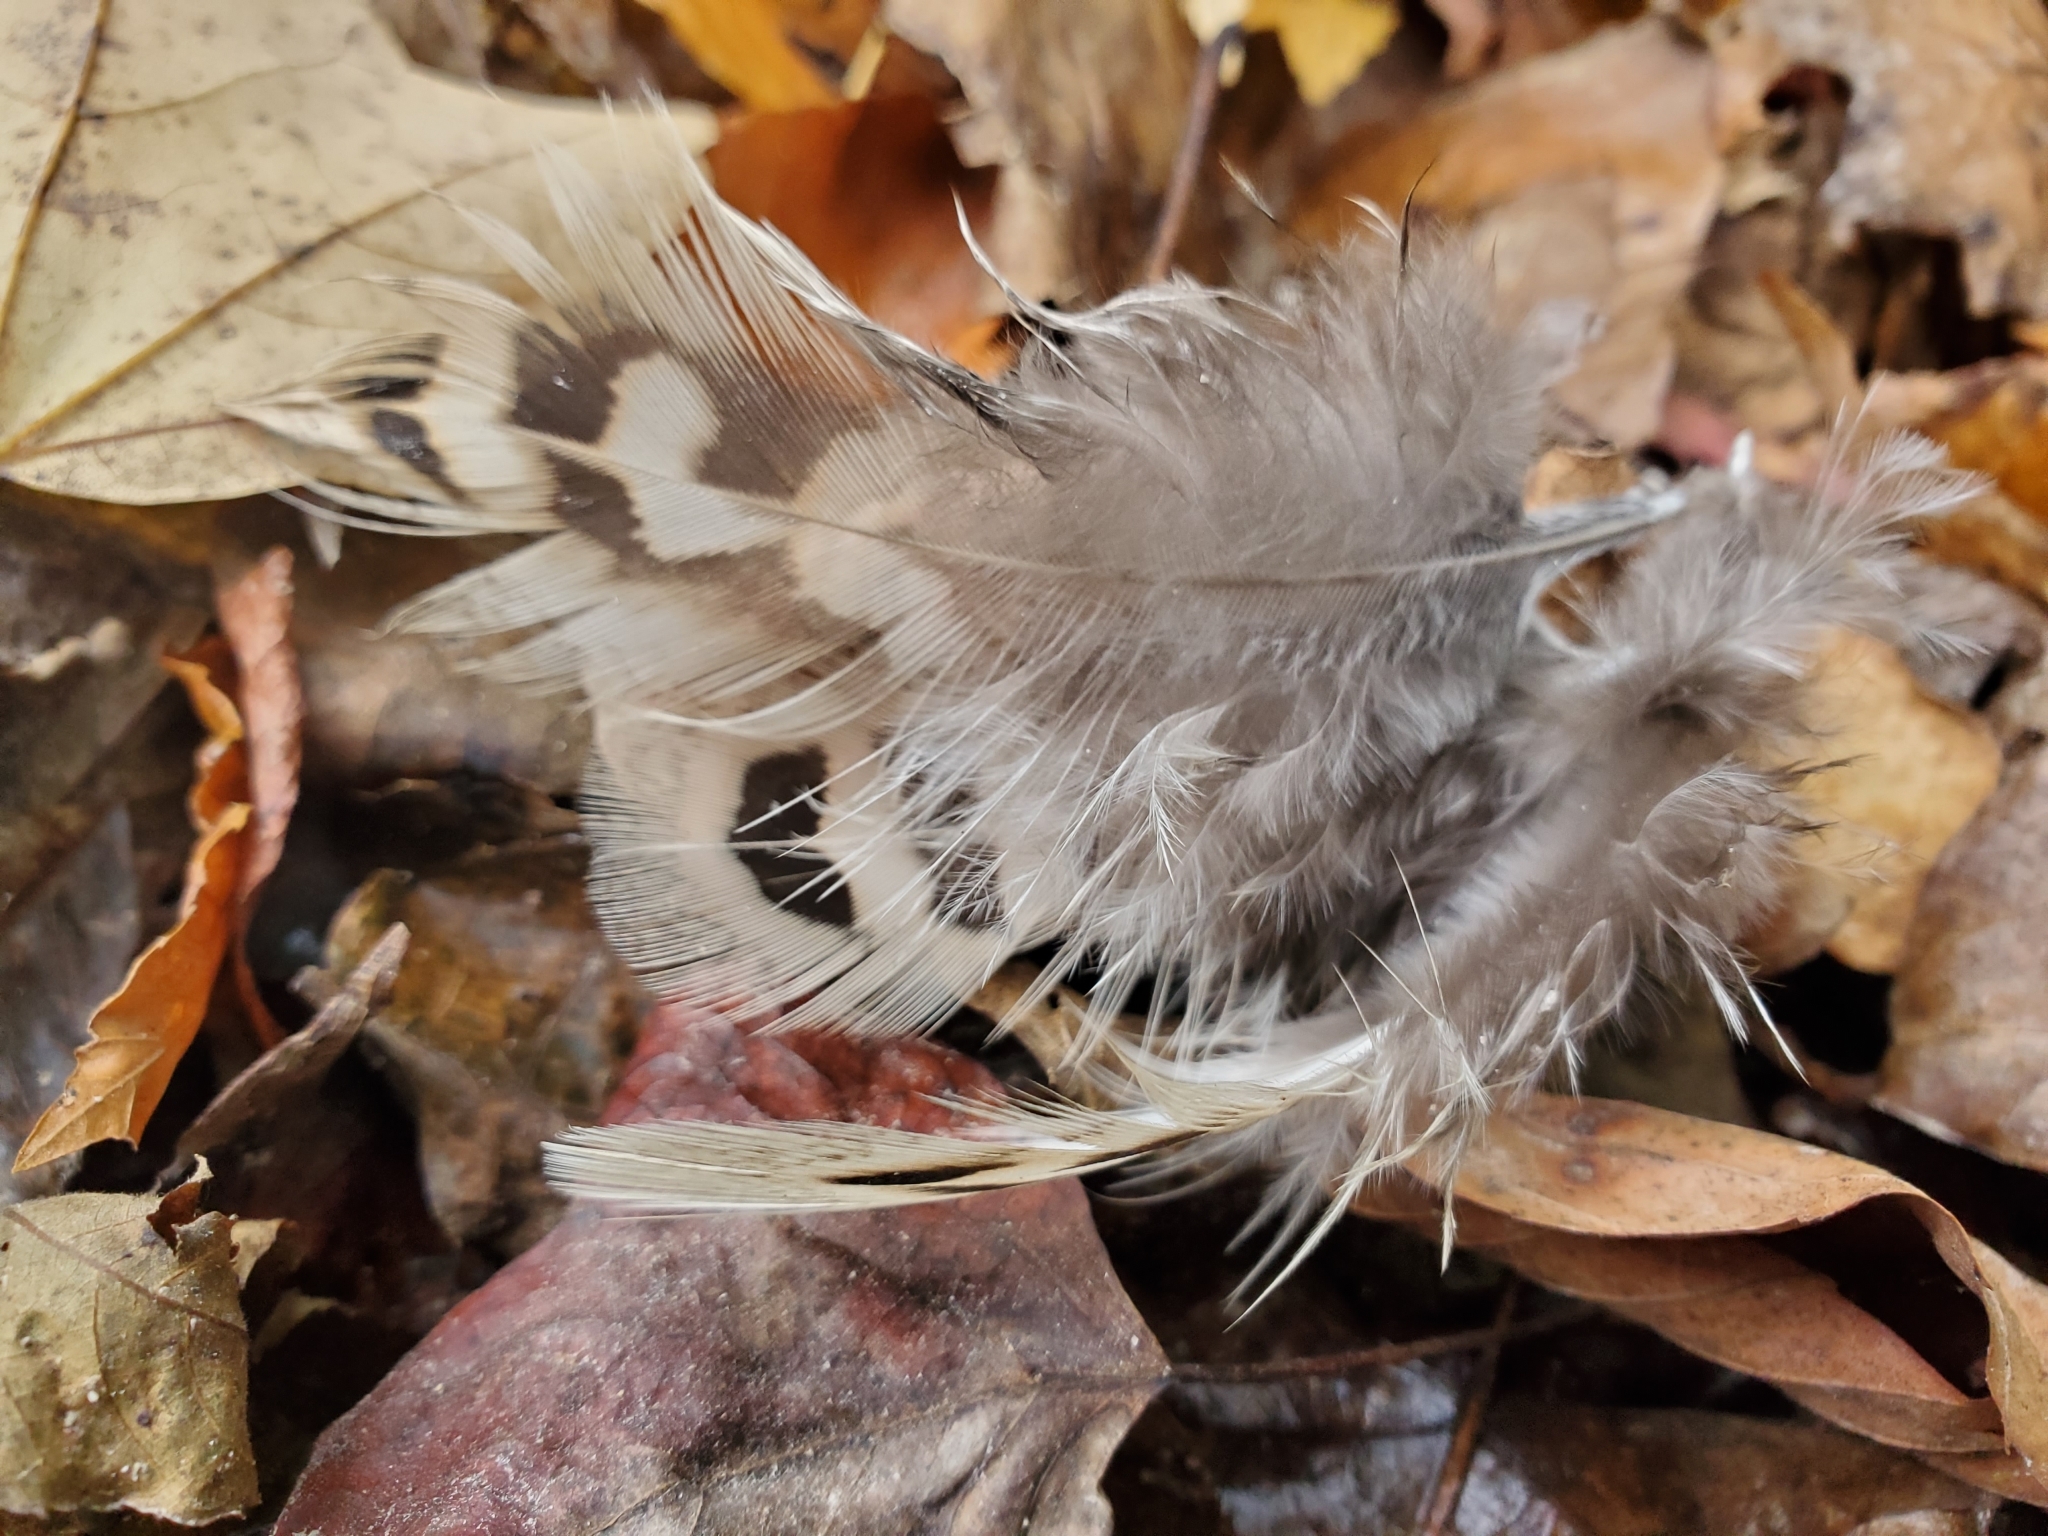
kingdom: Animalia
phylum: Chordata
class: Aves
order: Galliformes
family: Phasianidae
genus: Phasianus
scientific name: Phasianus colchicus
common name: Common pheasant
